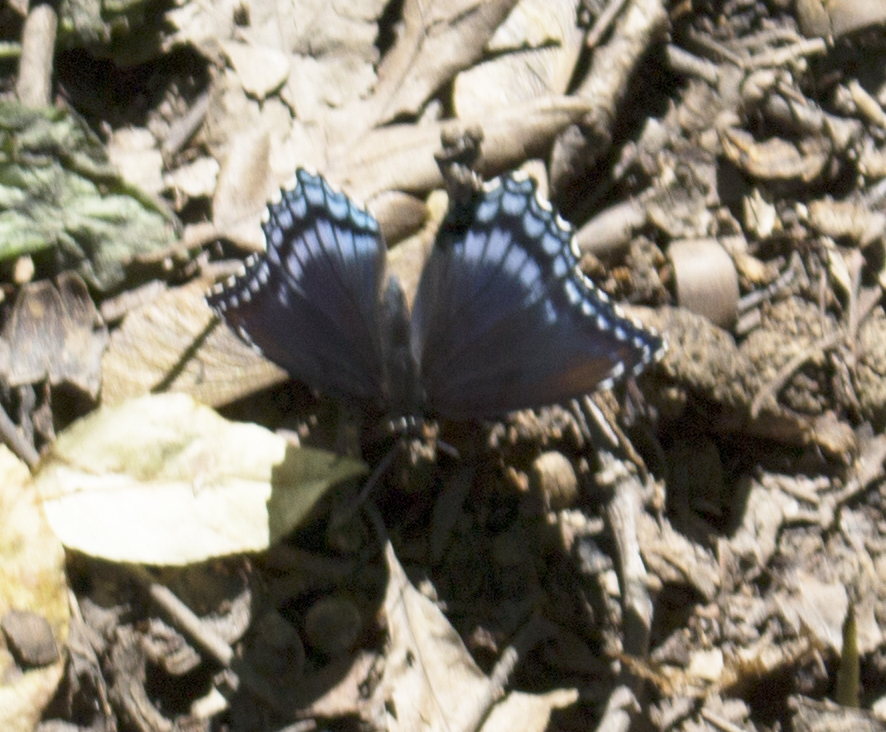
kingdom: Animalia
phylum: Arthropoda
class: Insecta
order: Lepidoptera
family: Nymphalidae
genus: Limenitis
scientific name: Limenitis astyanax
